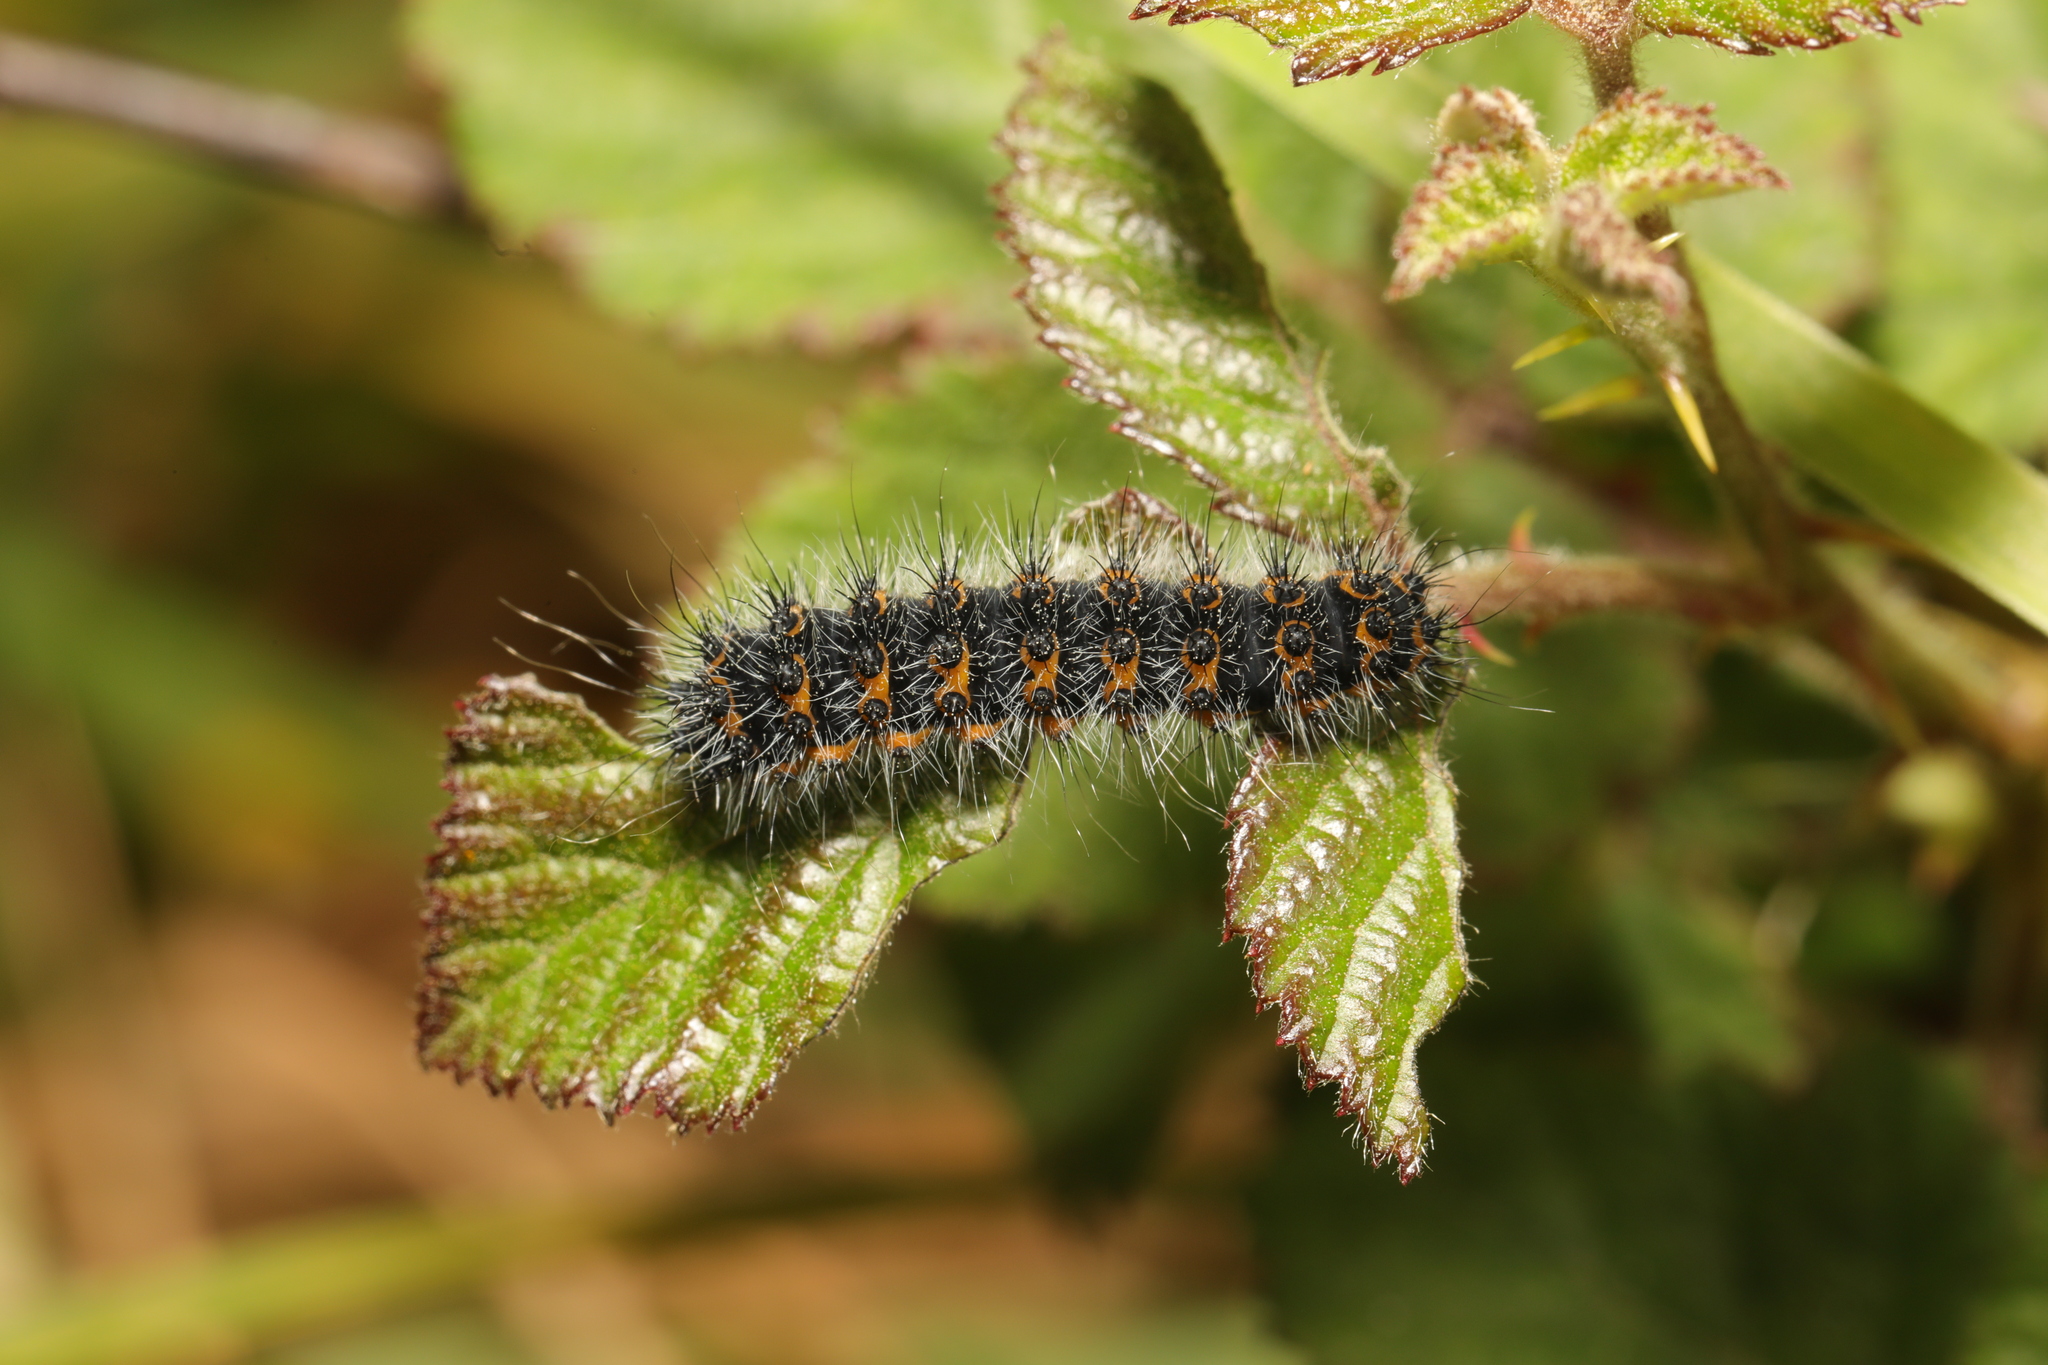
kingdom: Animalia
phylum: Arthropoda
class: Insecta
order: Lepidoptera
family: Saturniidae
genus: Saturnia
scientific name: Saturnia pavonia
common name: Emperor moth
